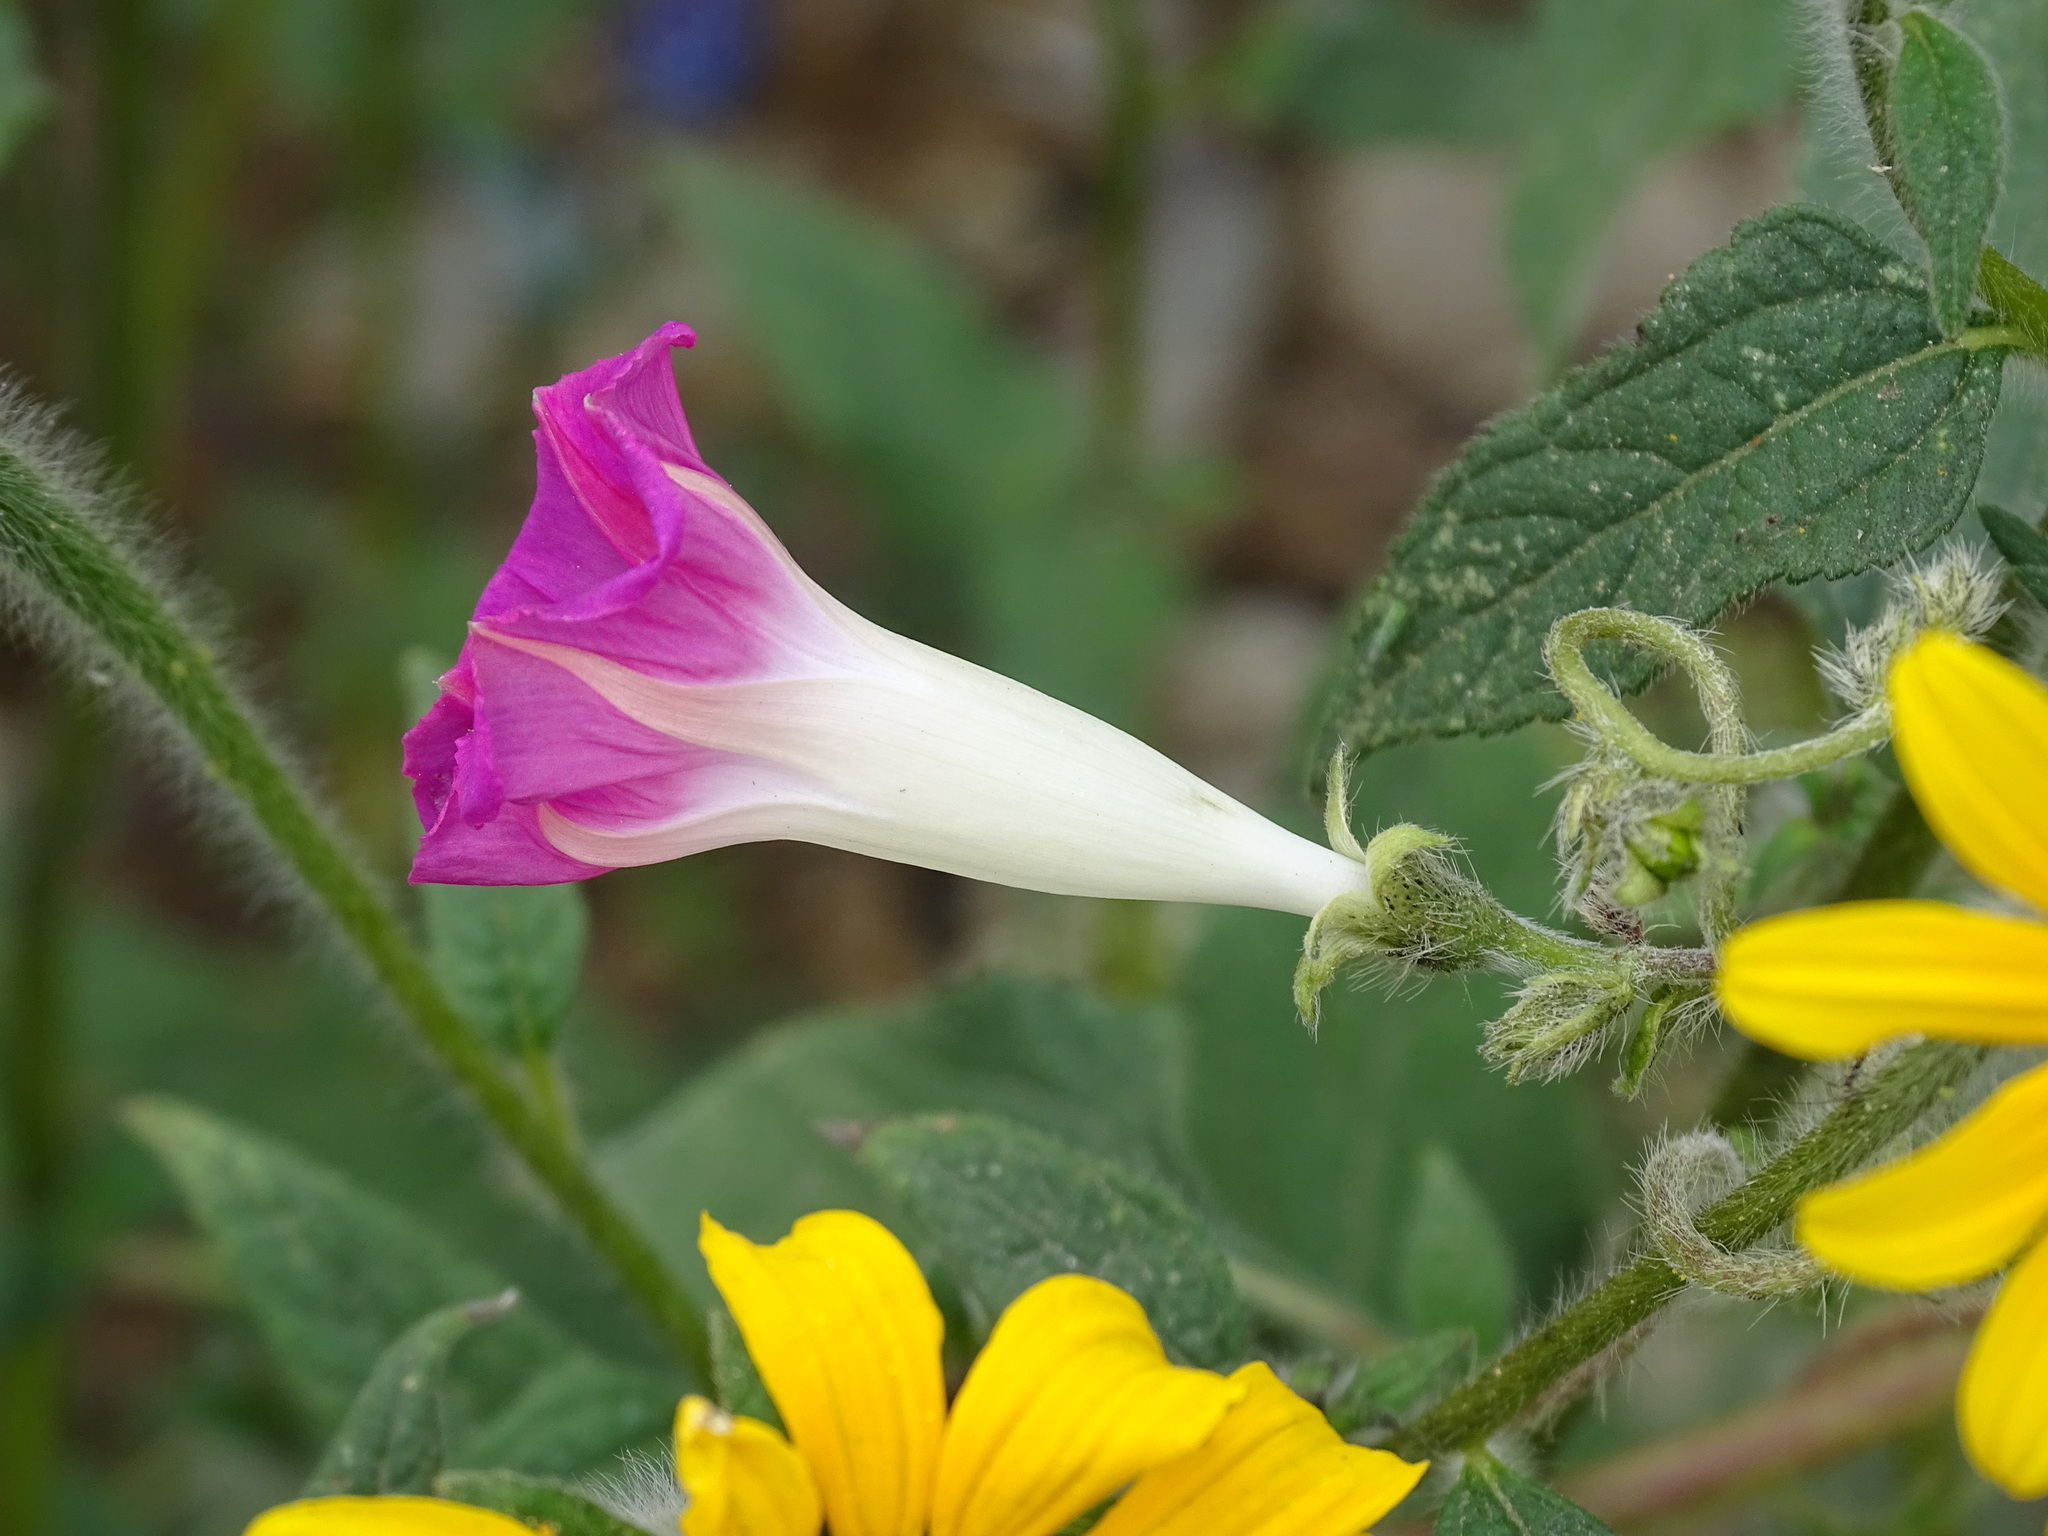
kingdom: Plantae
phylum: Tracheophyta
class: Magnoliopsida
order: Solanales
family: Convolvulaceae
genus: Ipomoea
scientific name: Ipomoea purpurea
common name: Common morning-glory
